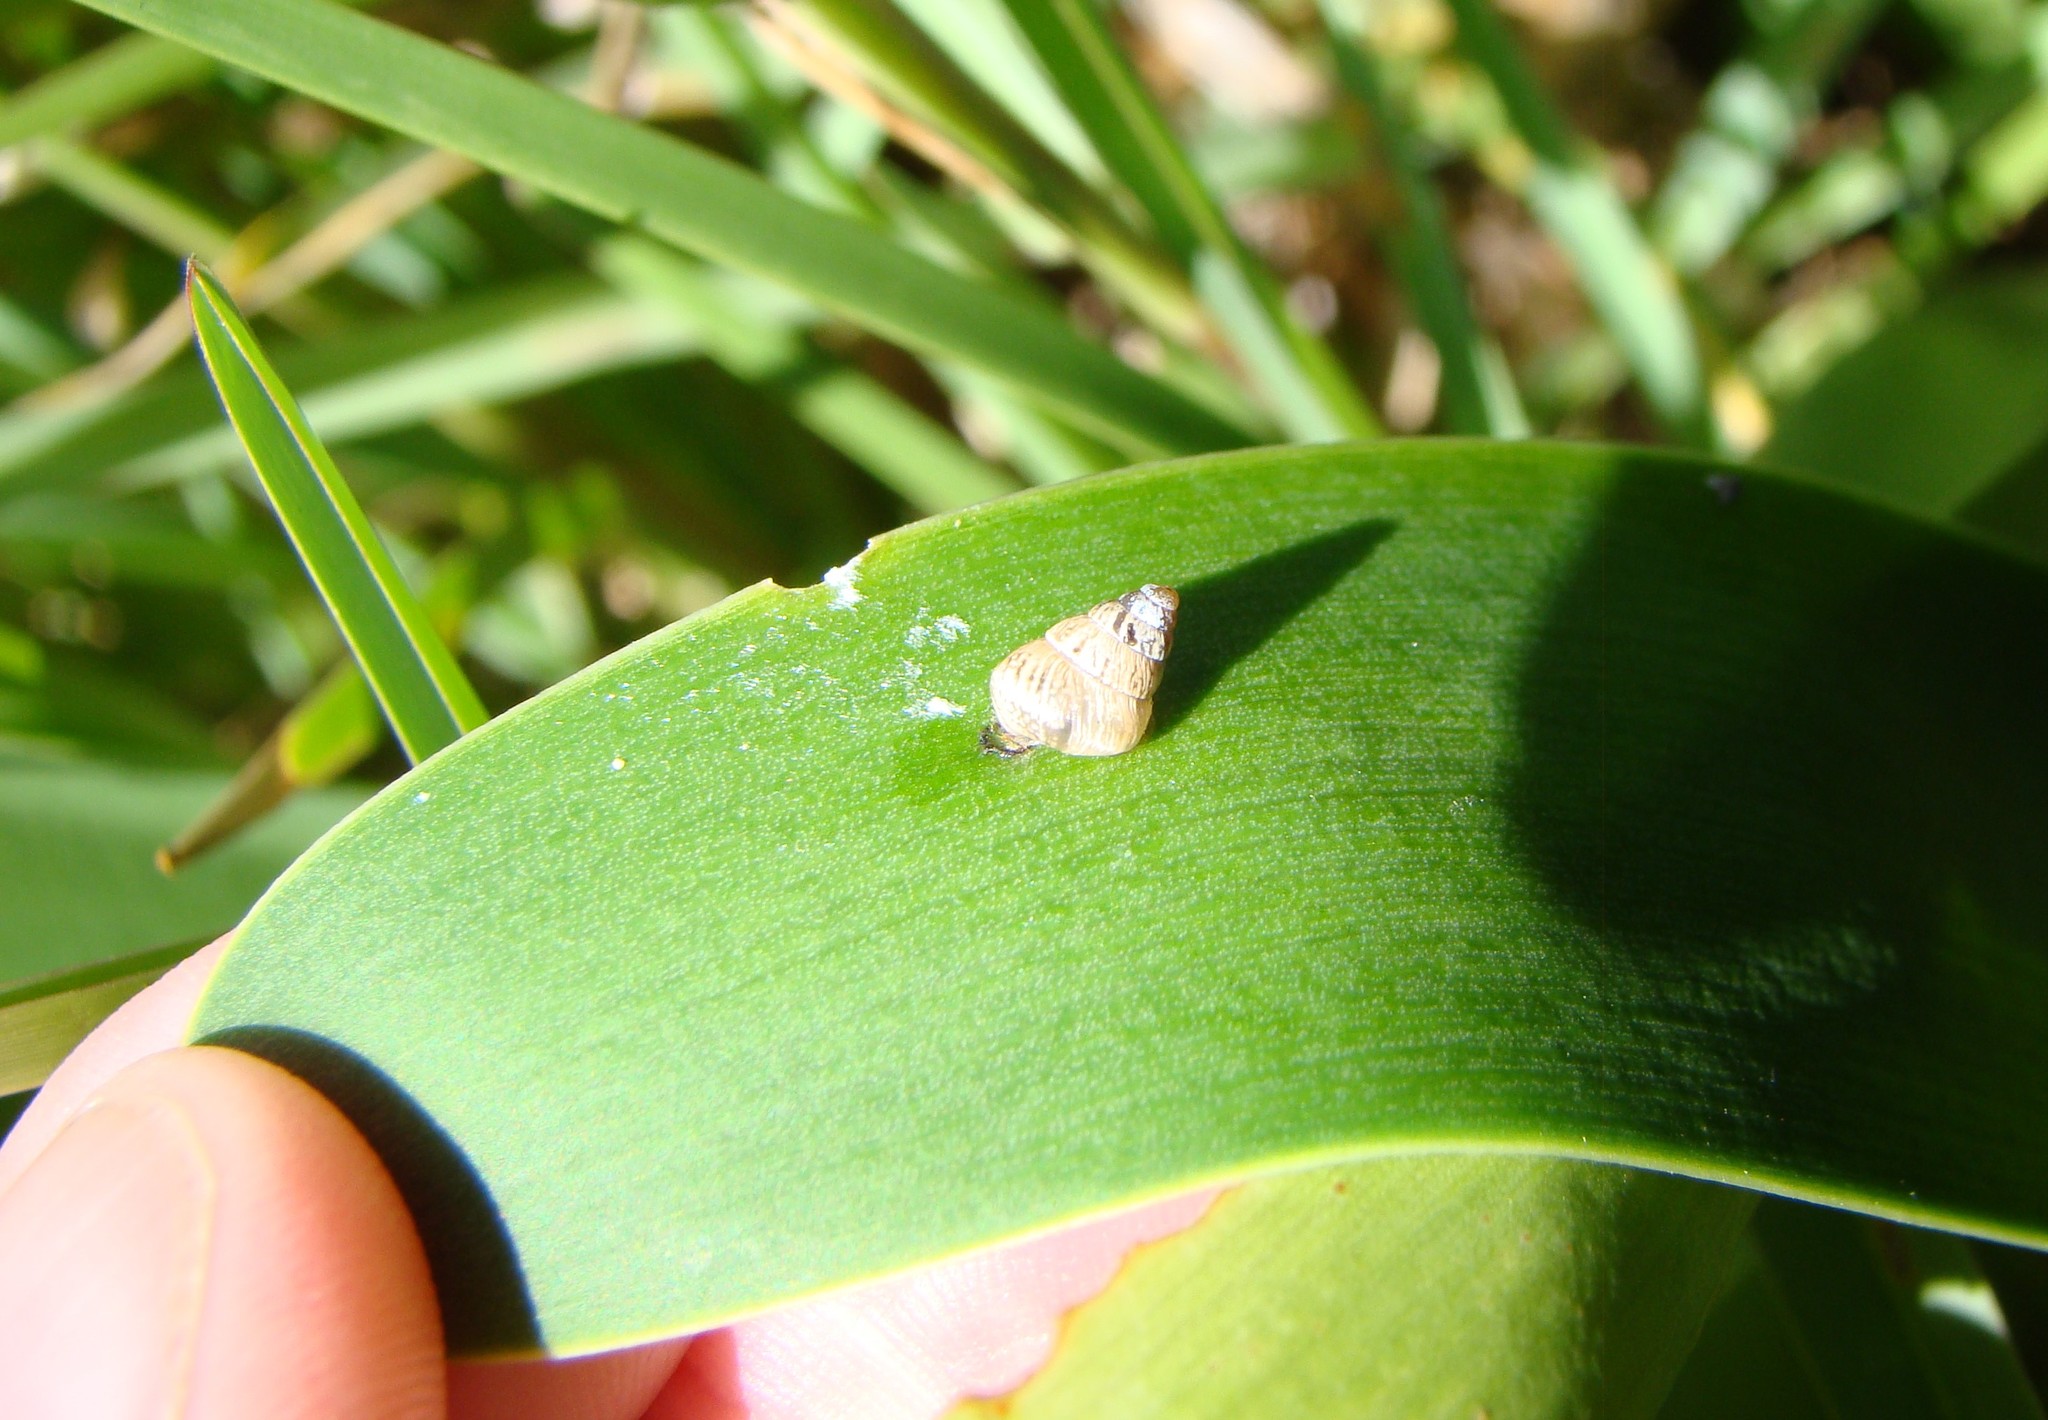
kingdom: Animalia
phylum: Mollusca
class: Gastropoda
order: Stylommatophora
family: Geomitridae
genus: Cochlicella
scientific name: Cochlicella barbara
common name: Potbellied helicellid
